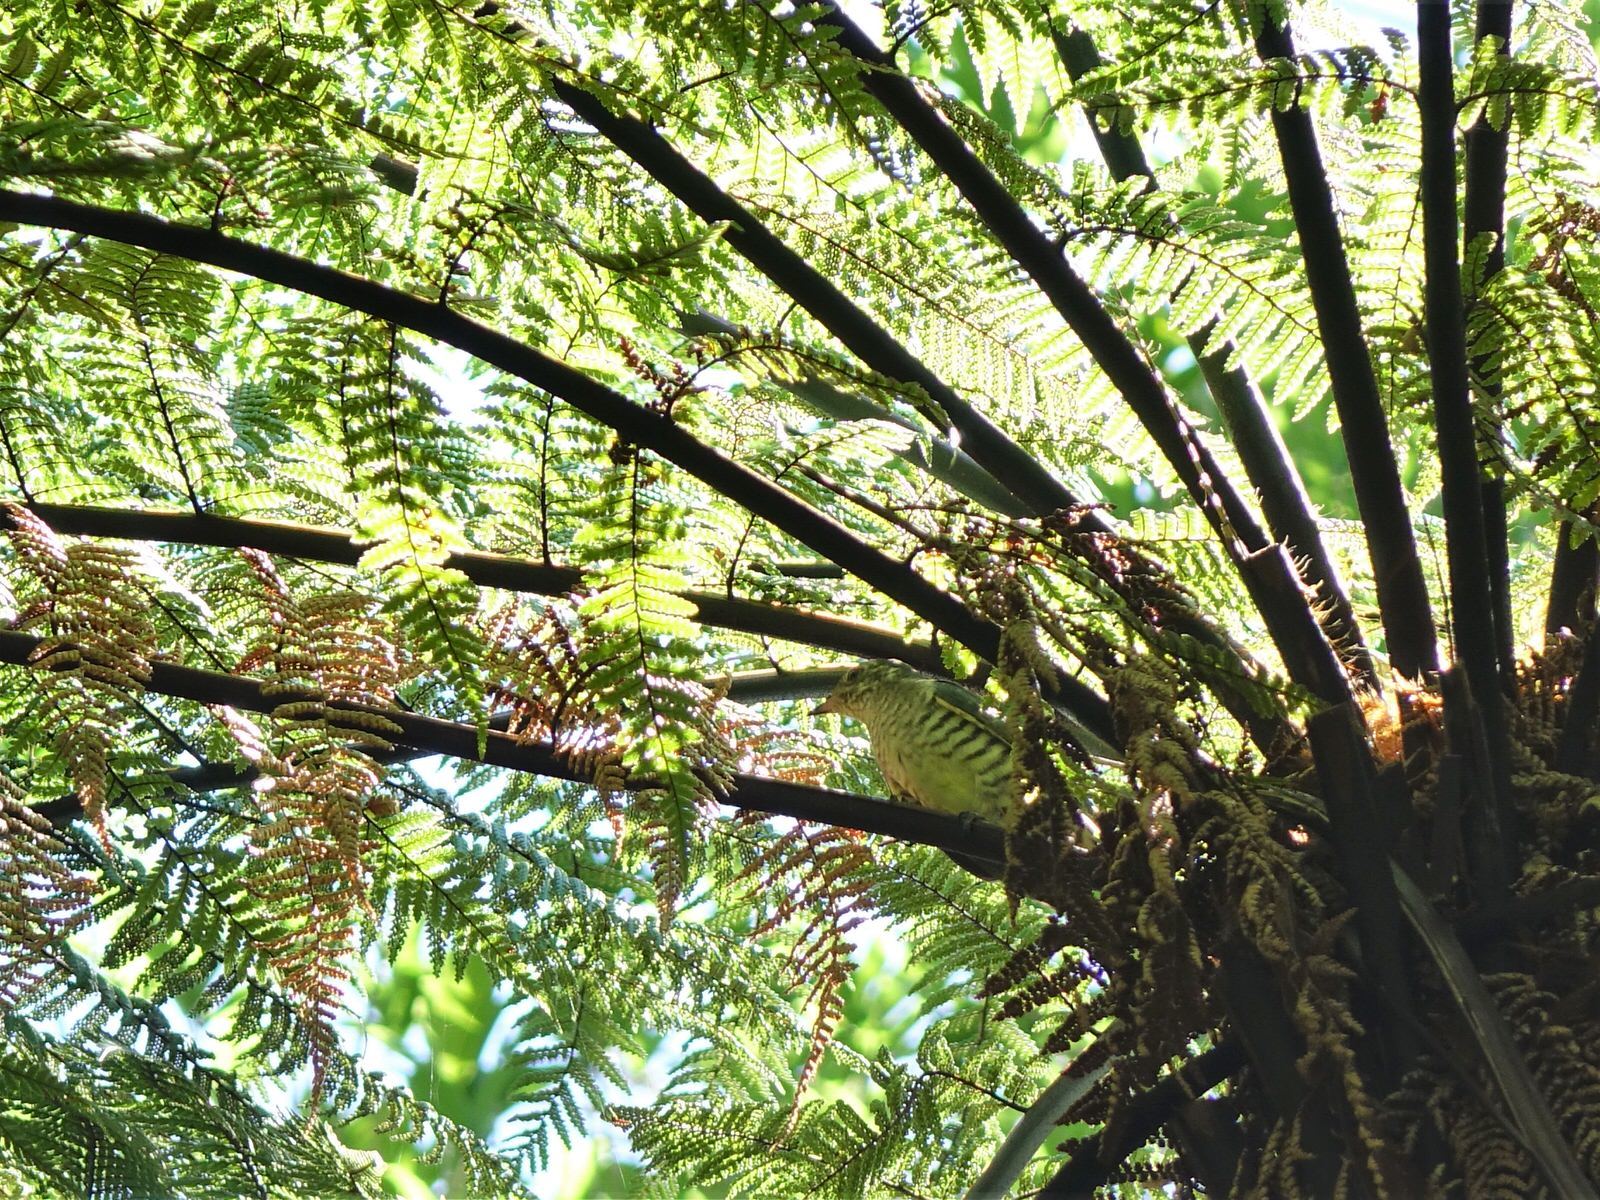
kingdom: Animalia
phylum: Chordata
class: Aves
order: Cuculiformes
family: Cuculidae
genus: Chrysococcyx
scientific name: Chrysococcyx lucidus
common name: Shining bronze cuckoo
